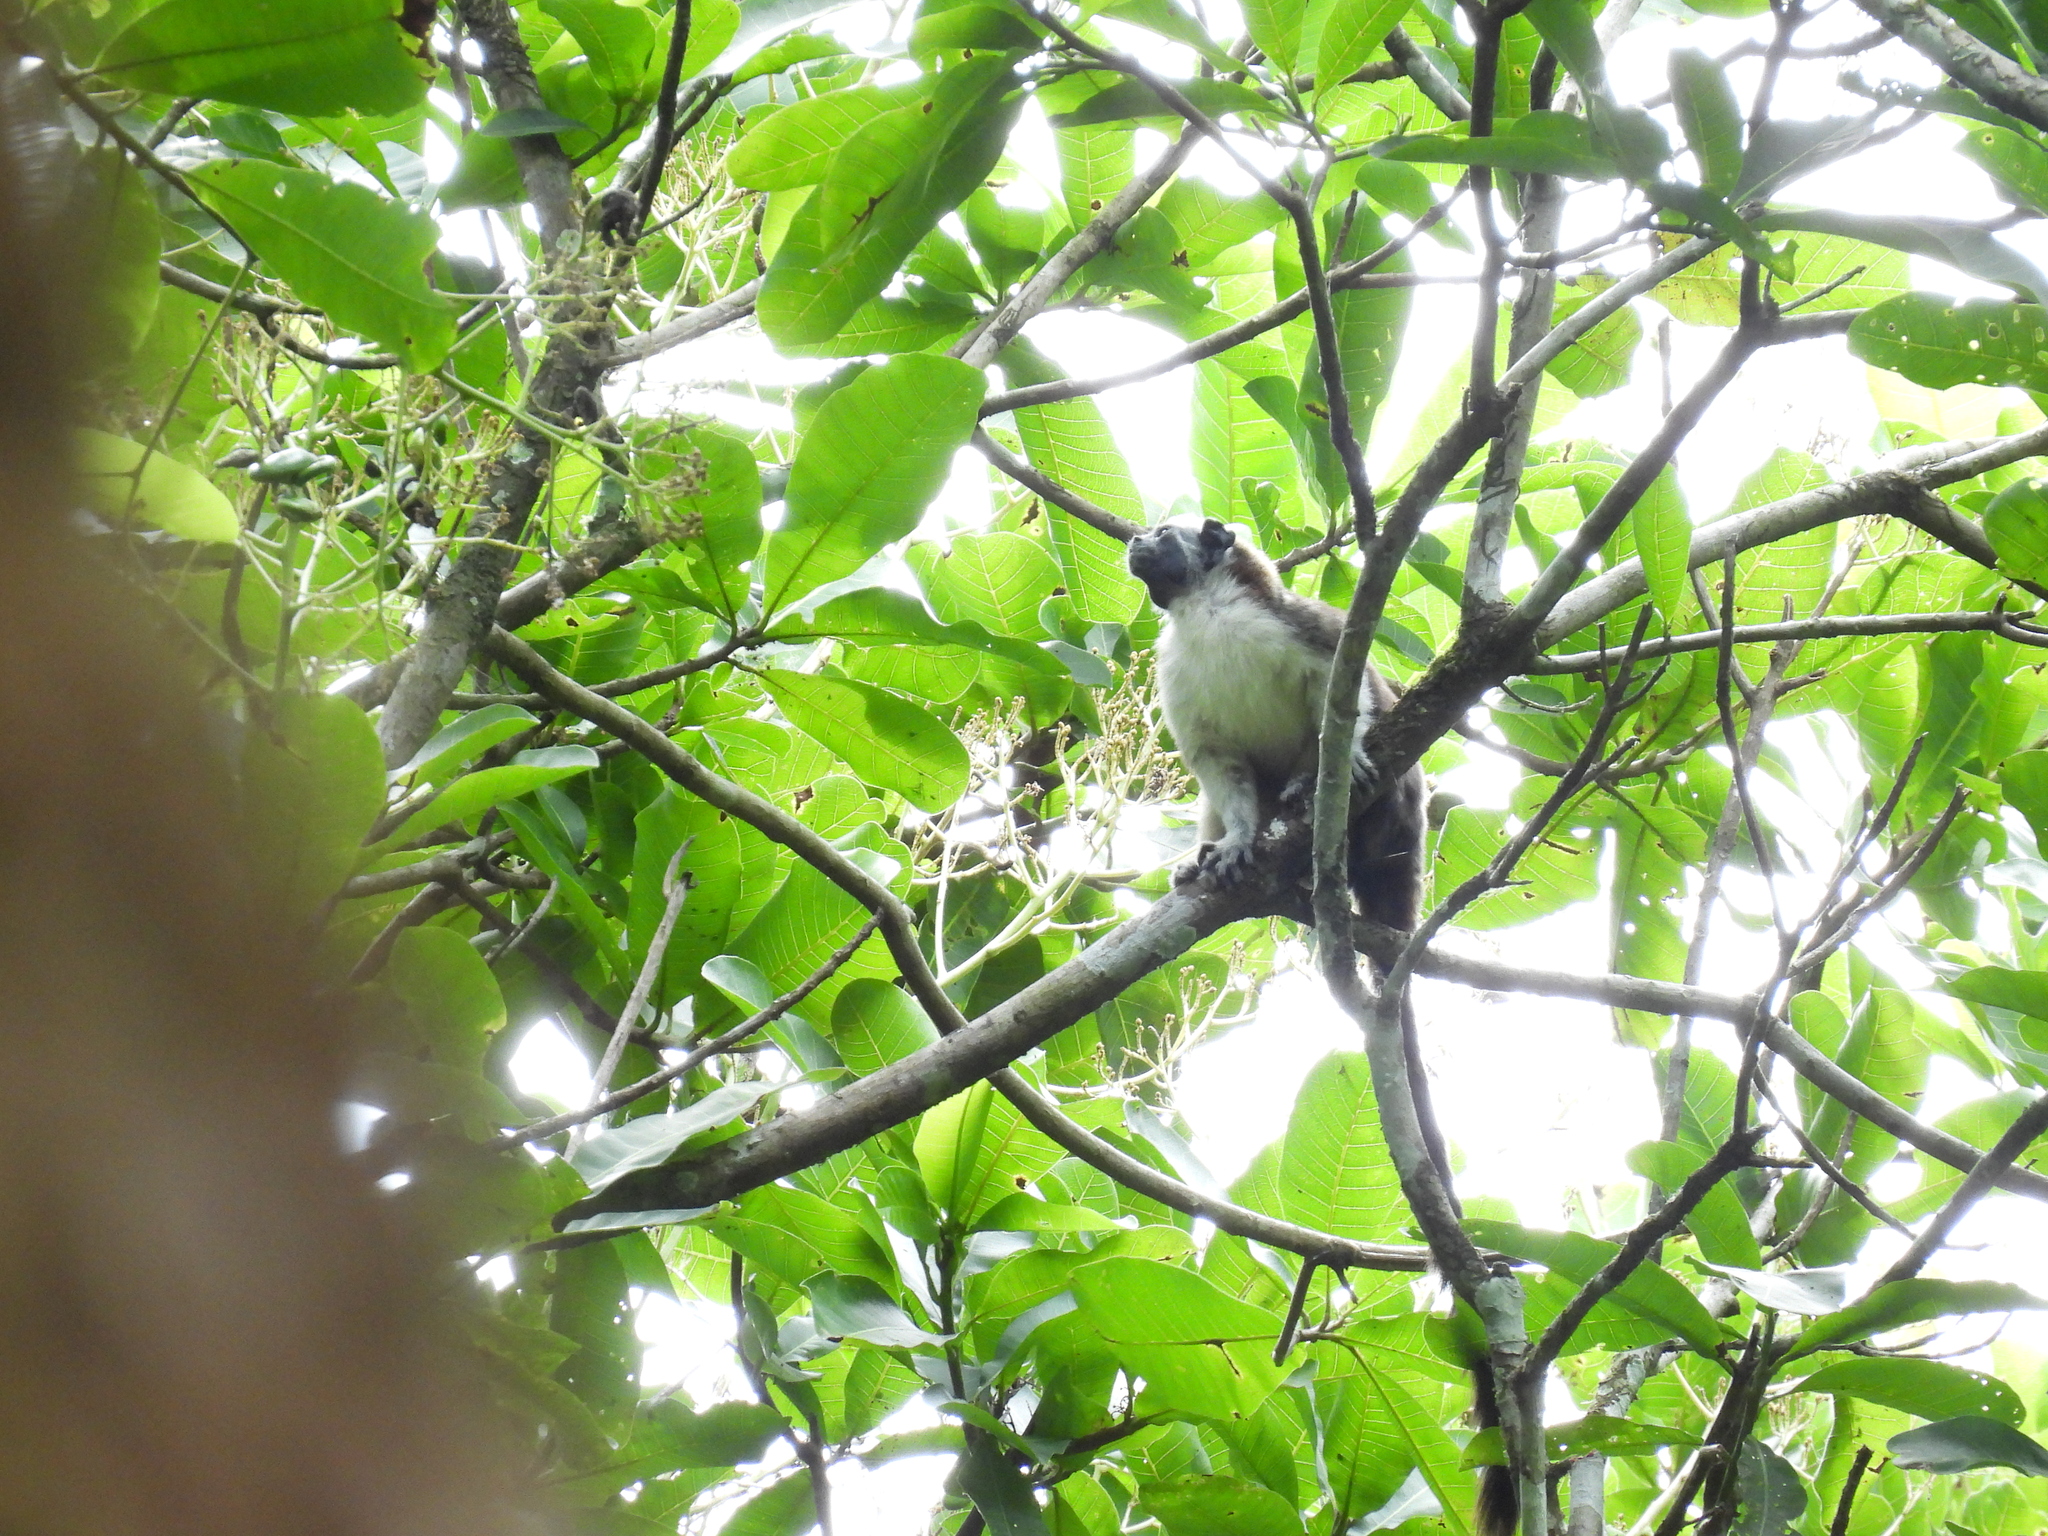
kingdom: Animalia
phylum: Chordata
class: Mammalia
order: Primates
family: Callitrichidae
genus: Saguinus
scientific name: Saguinus geoffroyi
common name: Geoffroy s tamarin
